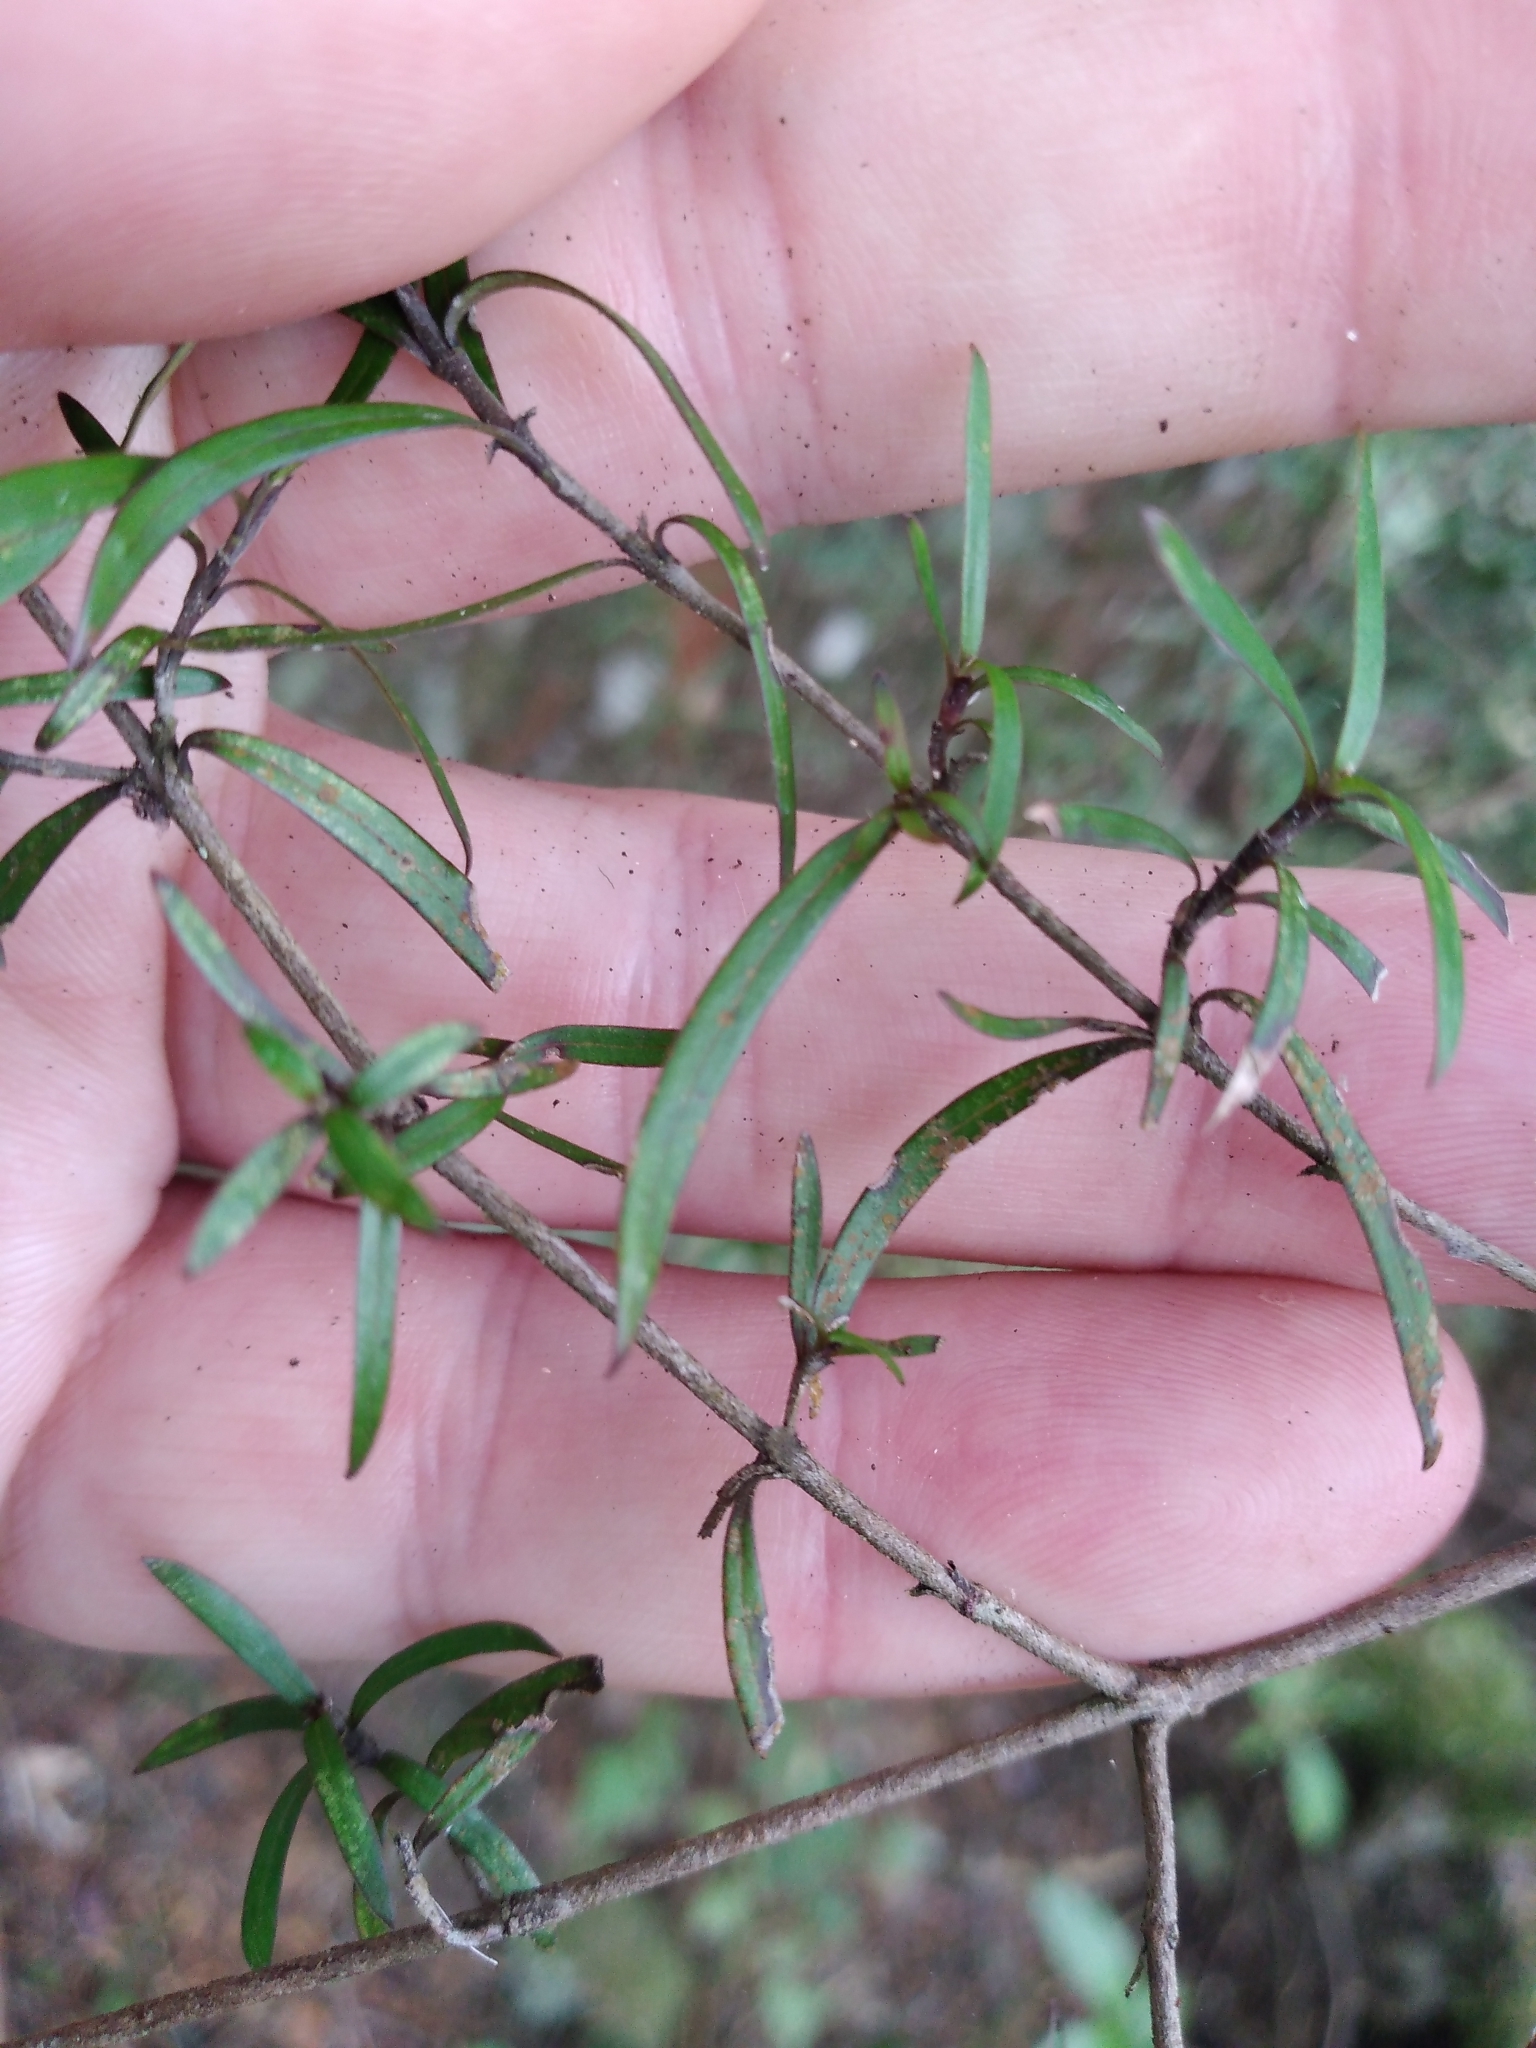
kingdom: Plantae
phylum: Tracheophyta
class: Magnoliopsida
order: Gentianales
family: Rubiaceae
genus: Coprosma
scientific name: Coprosma linariifolia
